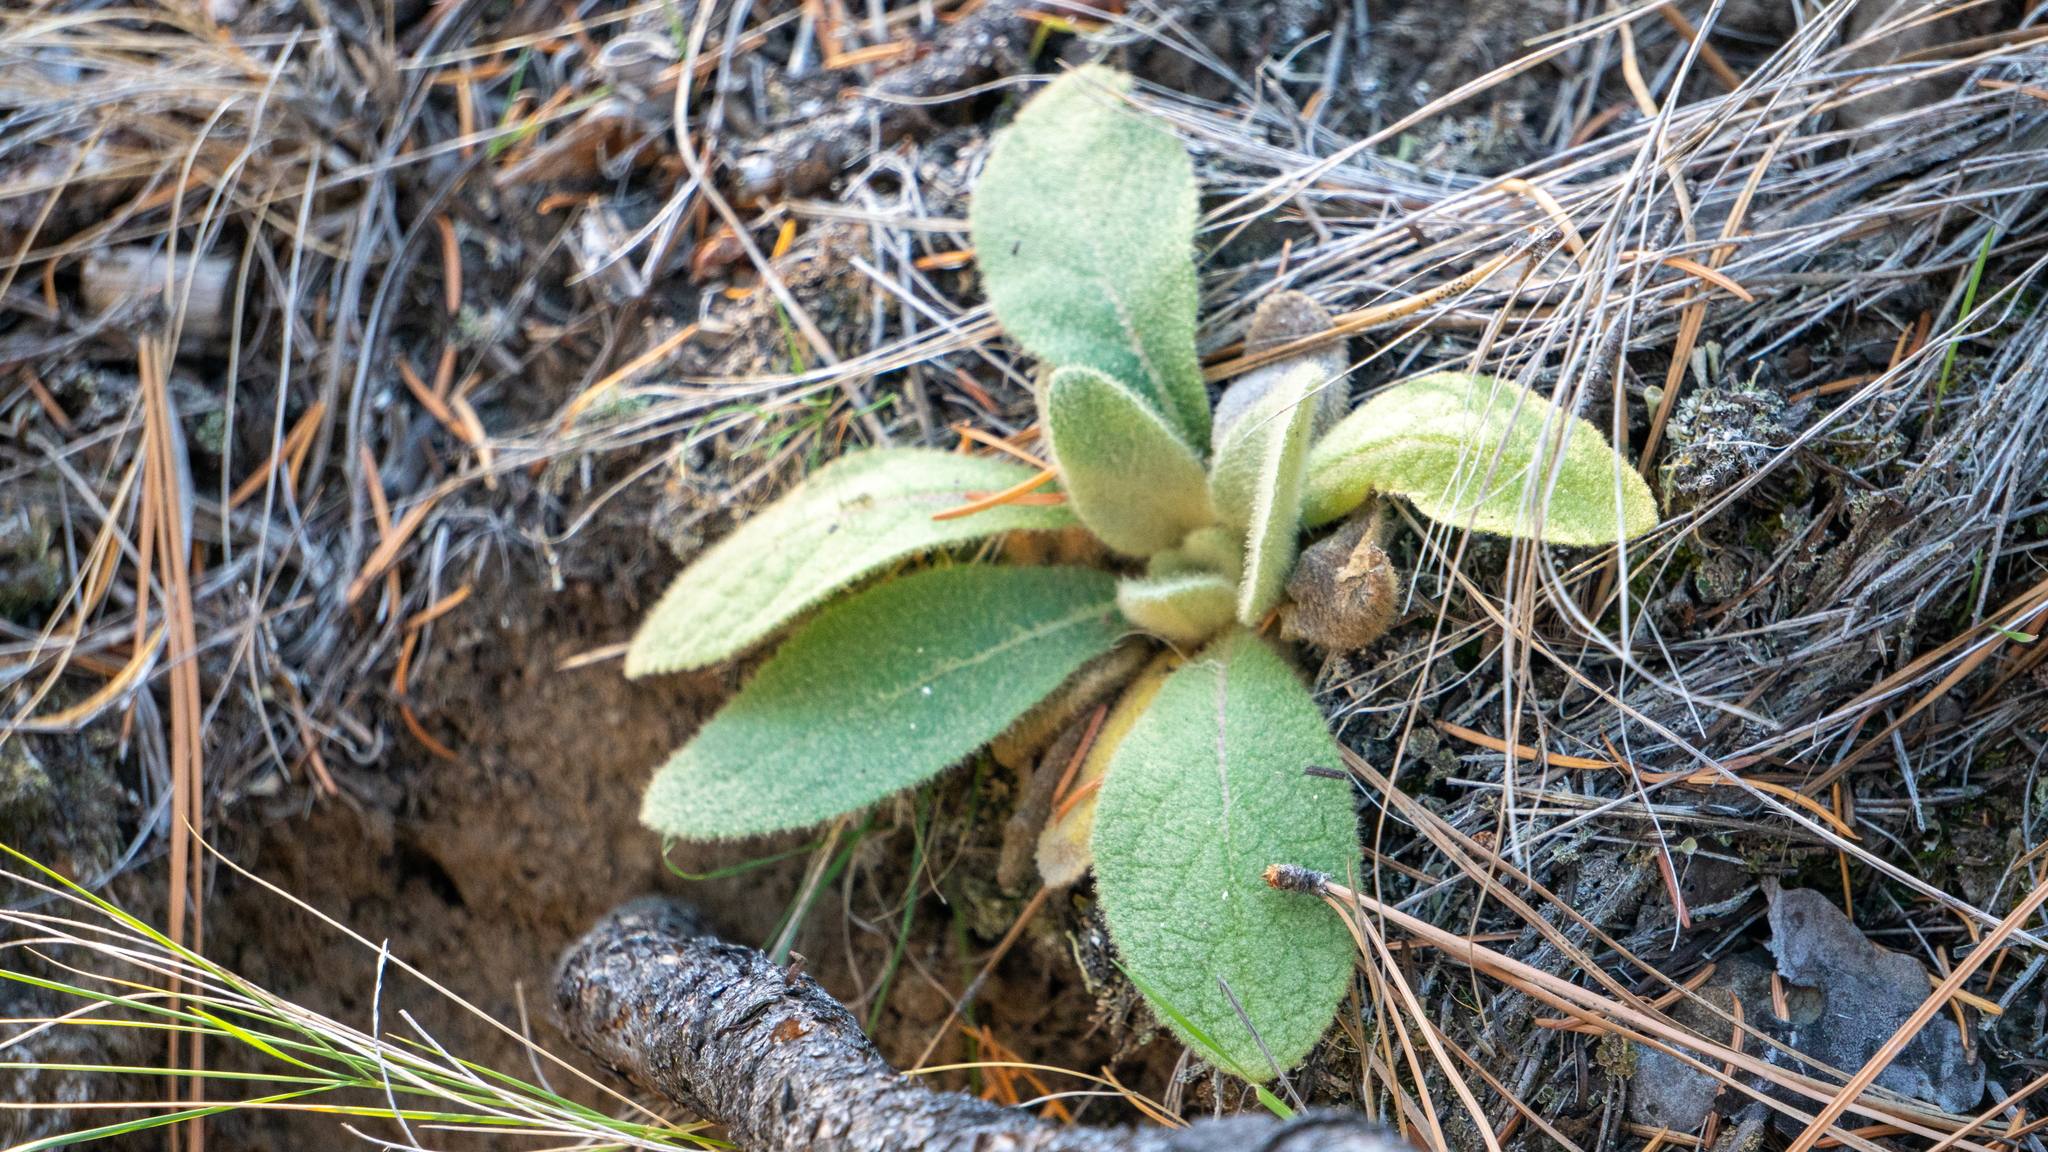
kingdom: Plantae
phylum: Tracheophyta
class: Magnoliopsida
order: Lamiales
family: Scrophulariaceae
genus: Verbascum
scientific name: Verbascum thapsus
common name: Common mullein
